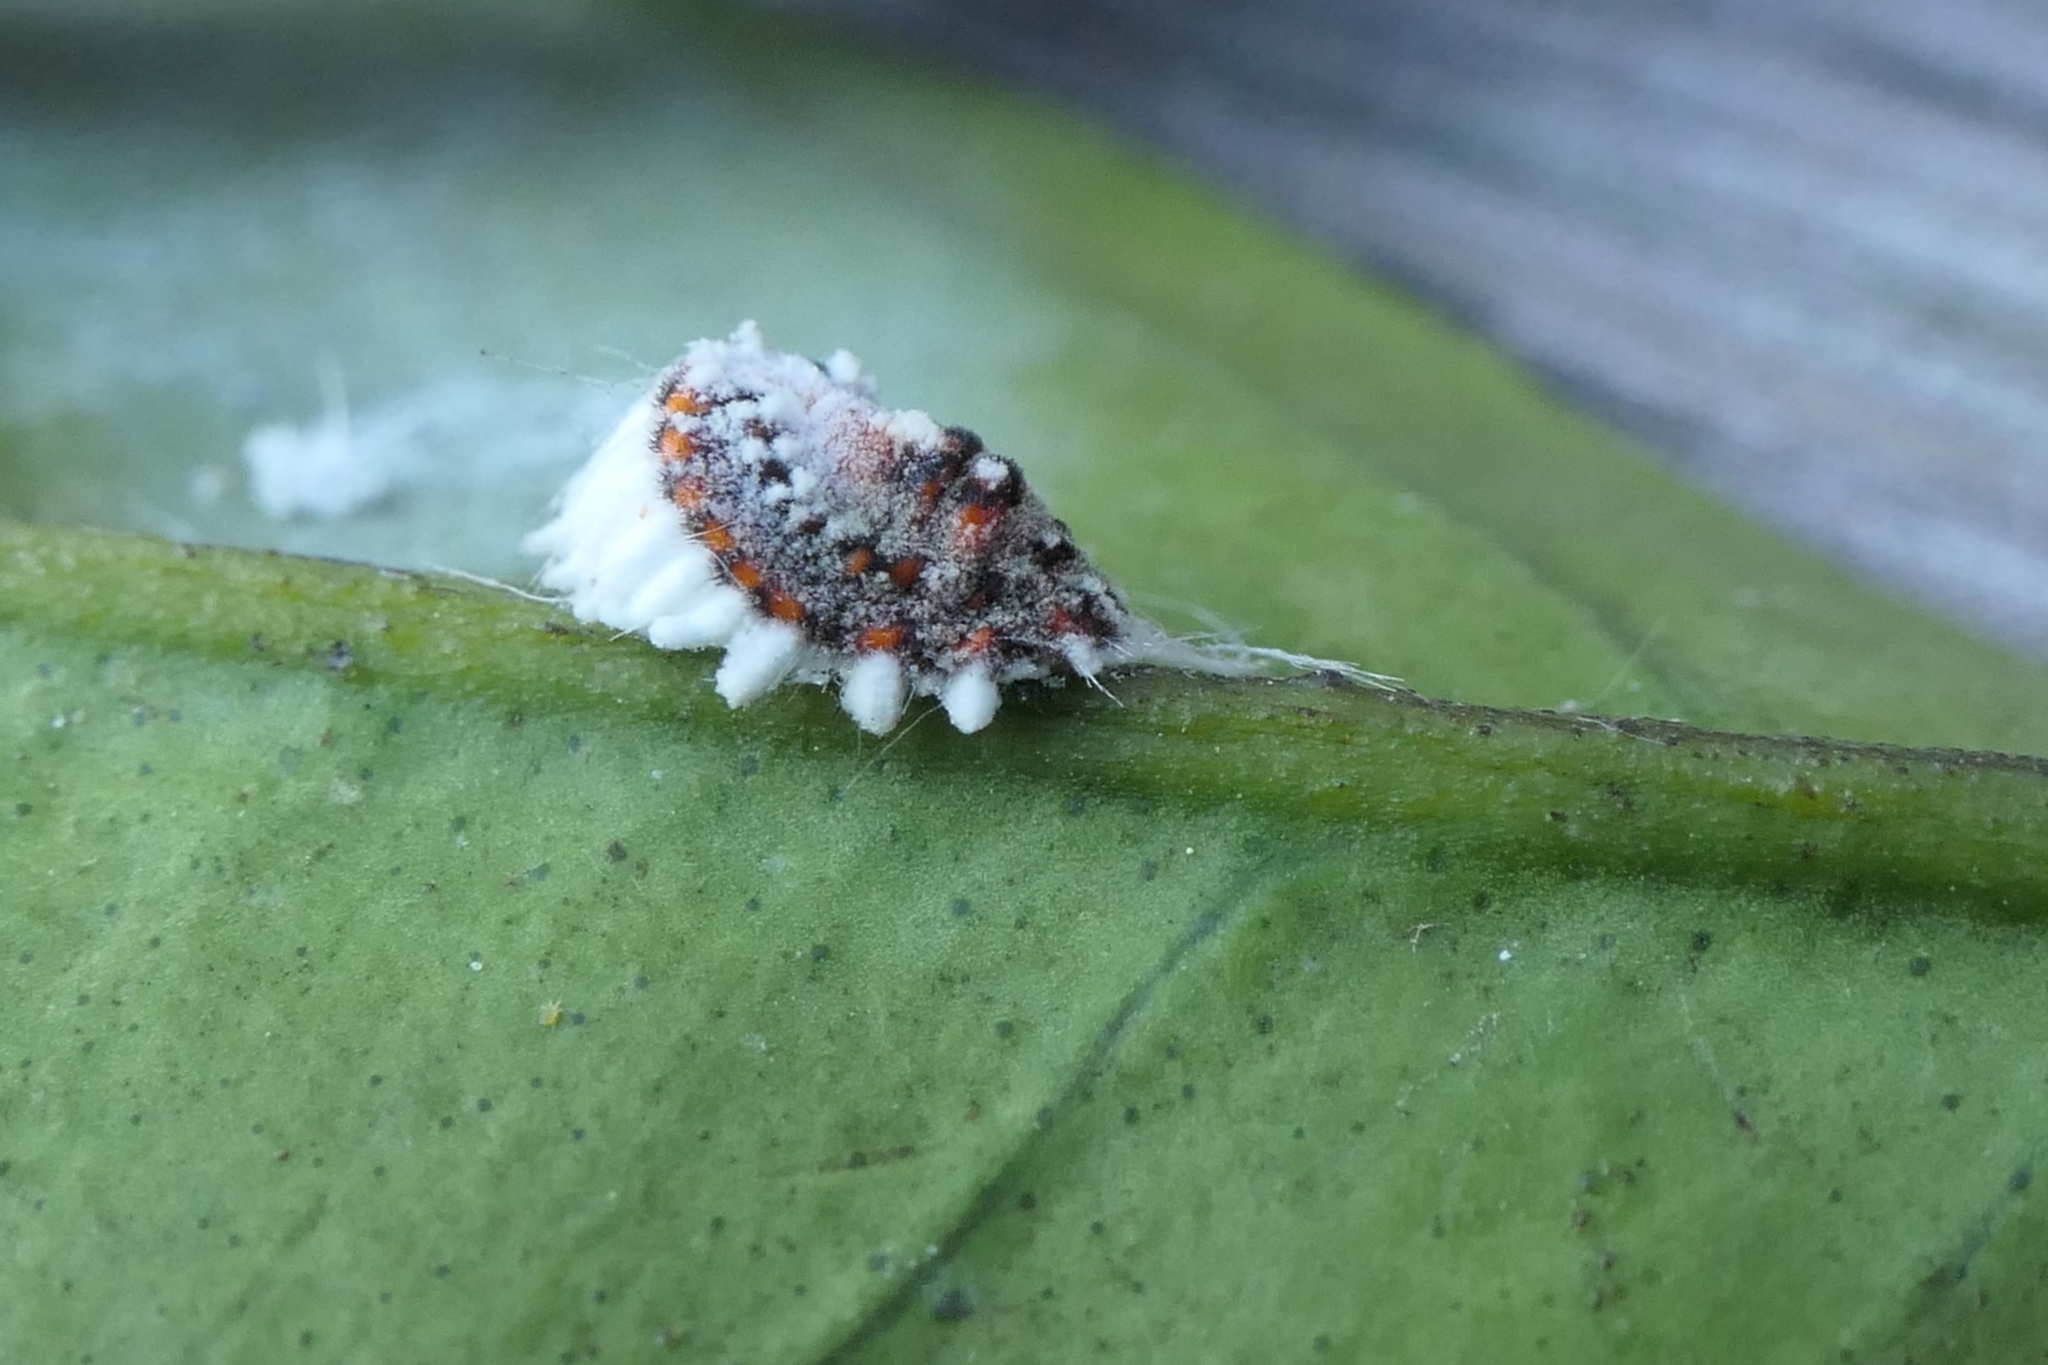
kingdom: Animalia
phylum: Arthropoda
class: Insecta
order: Hemiptera
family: Margarodidae
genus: Icerya
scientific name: Icerya purchasi
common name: Cottony cushion scale
